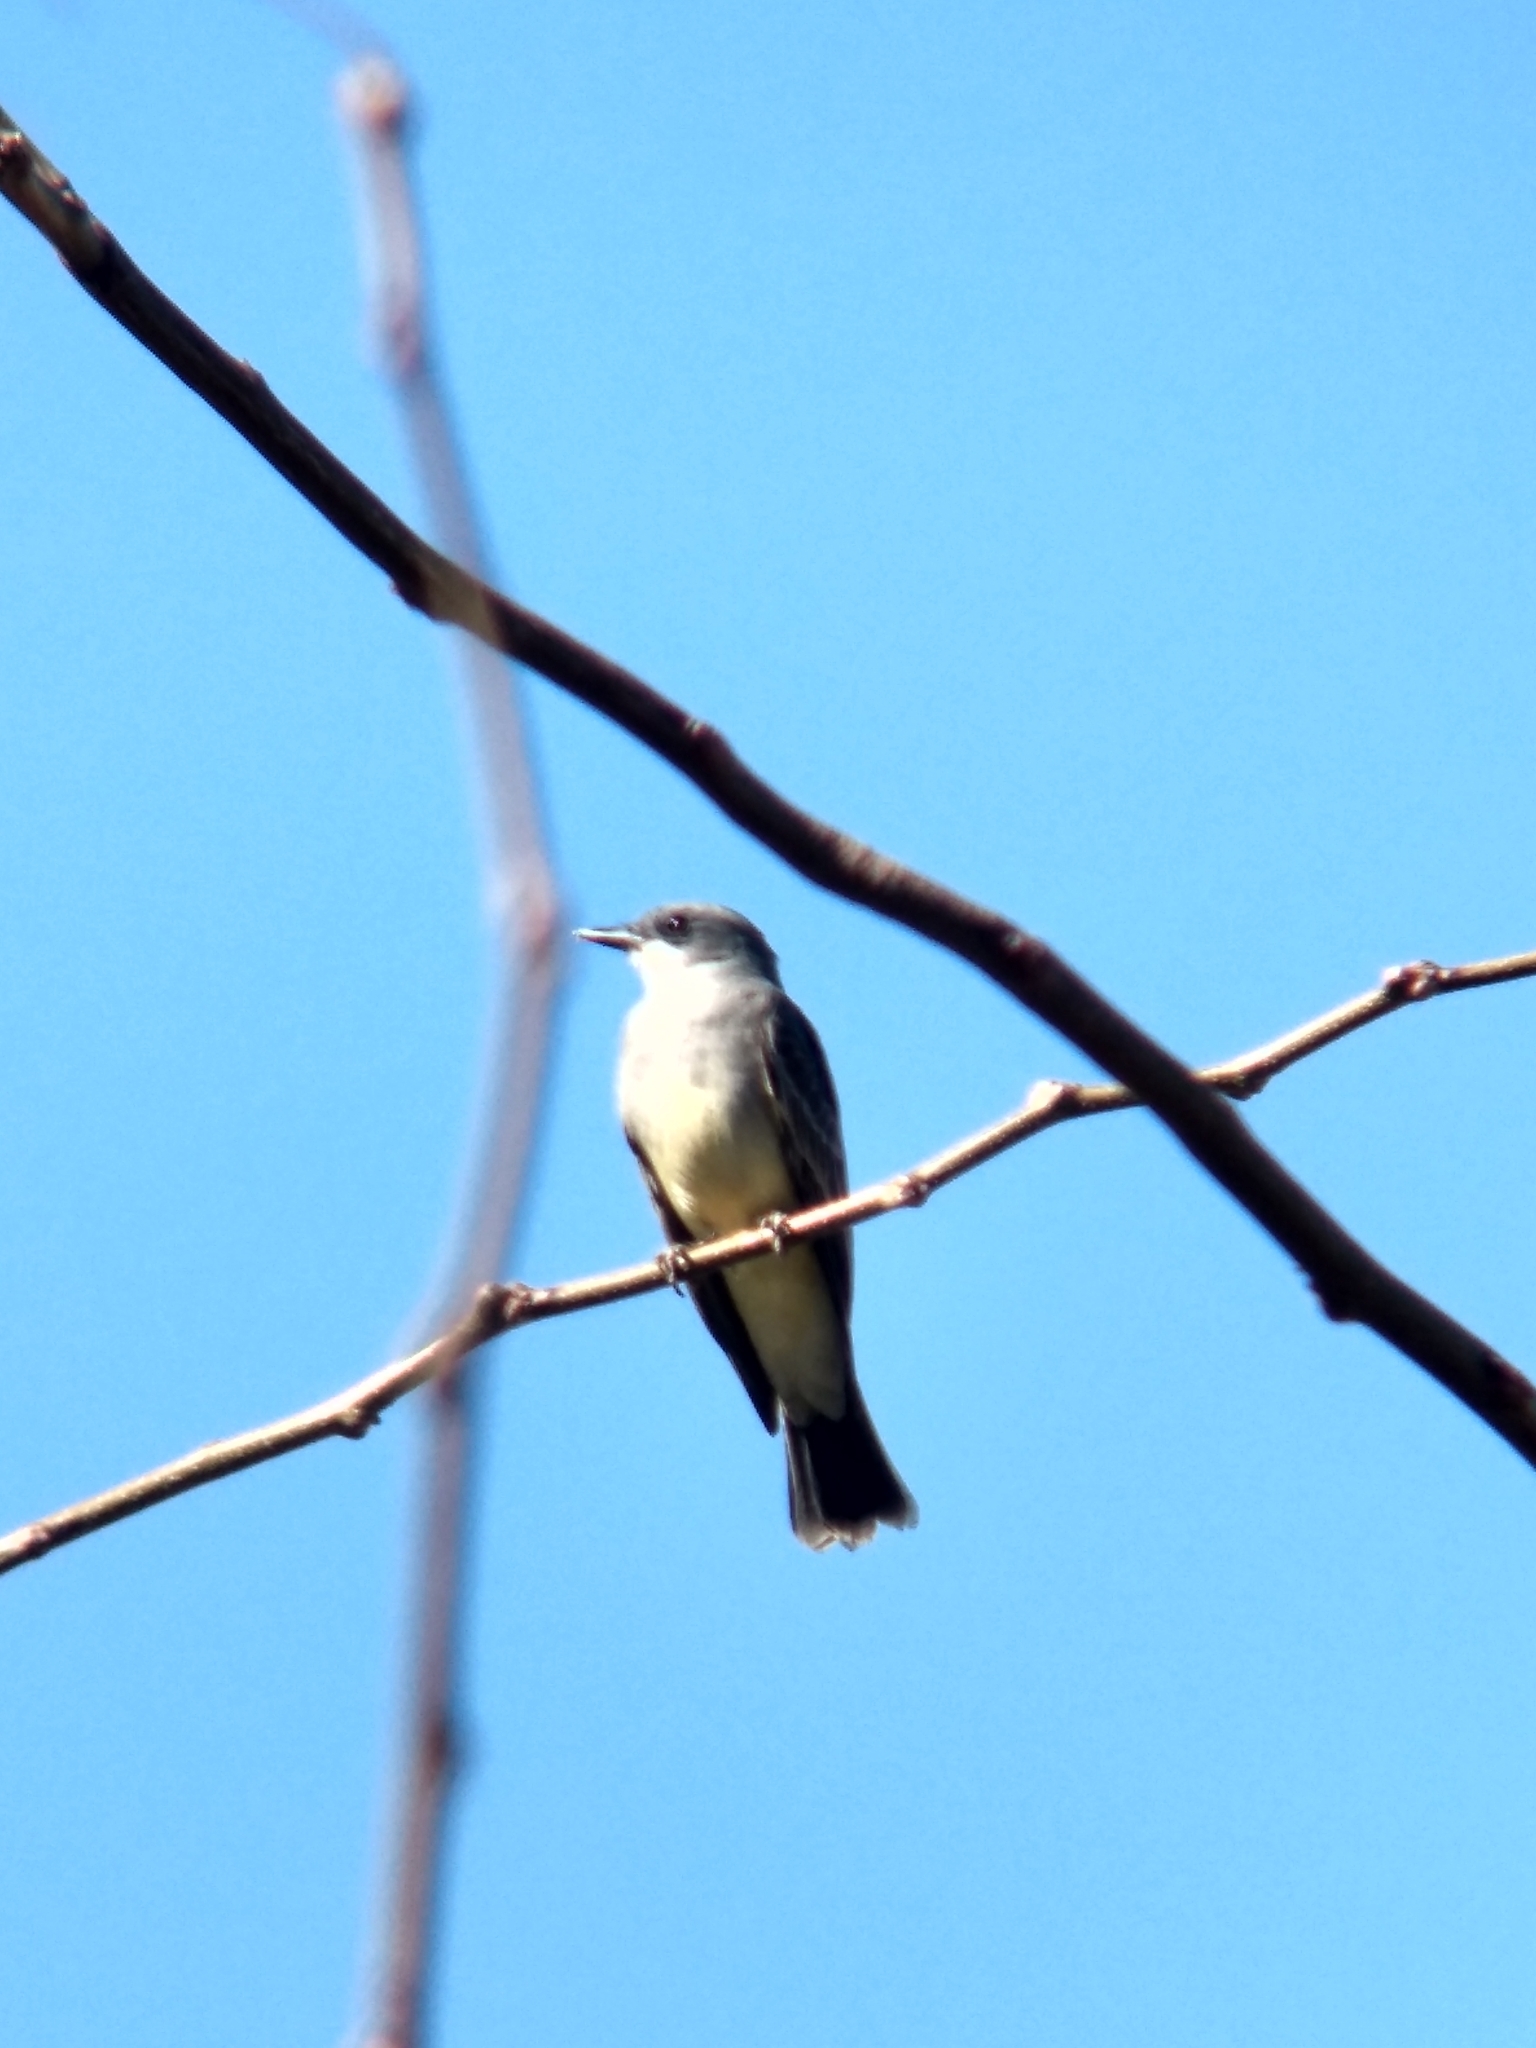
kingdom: Animalia
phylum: Chordata
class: Aves
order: Passeriformes
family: Tyrannidae
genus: Tyrannus
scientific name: Tyrannus vociferans
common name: Cassin's kingbird
